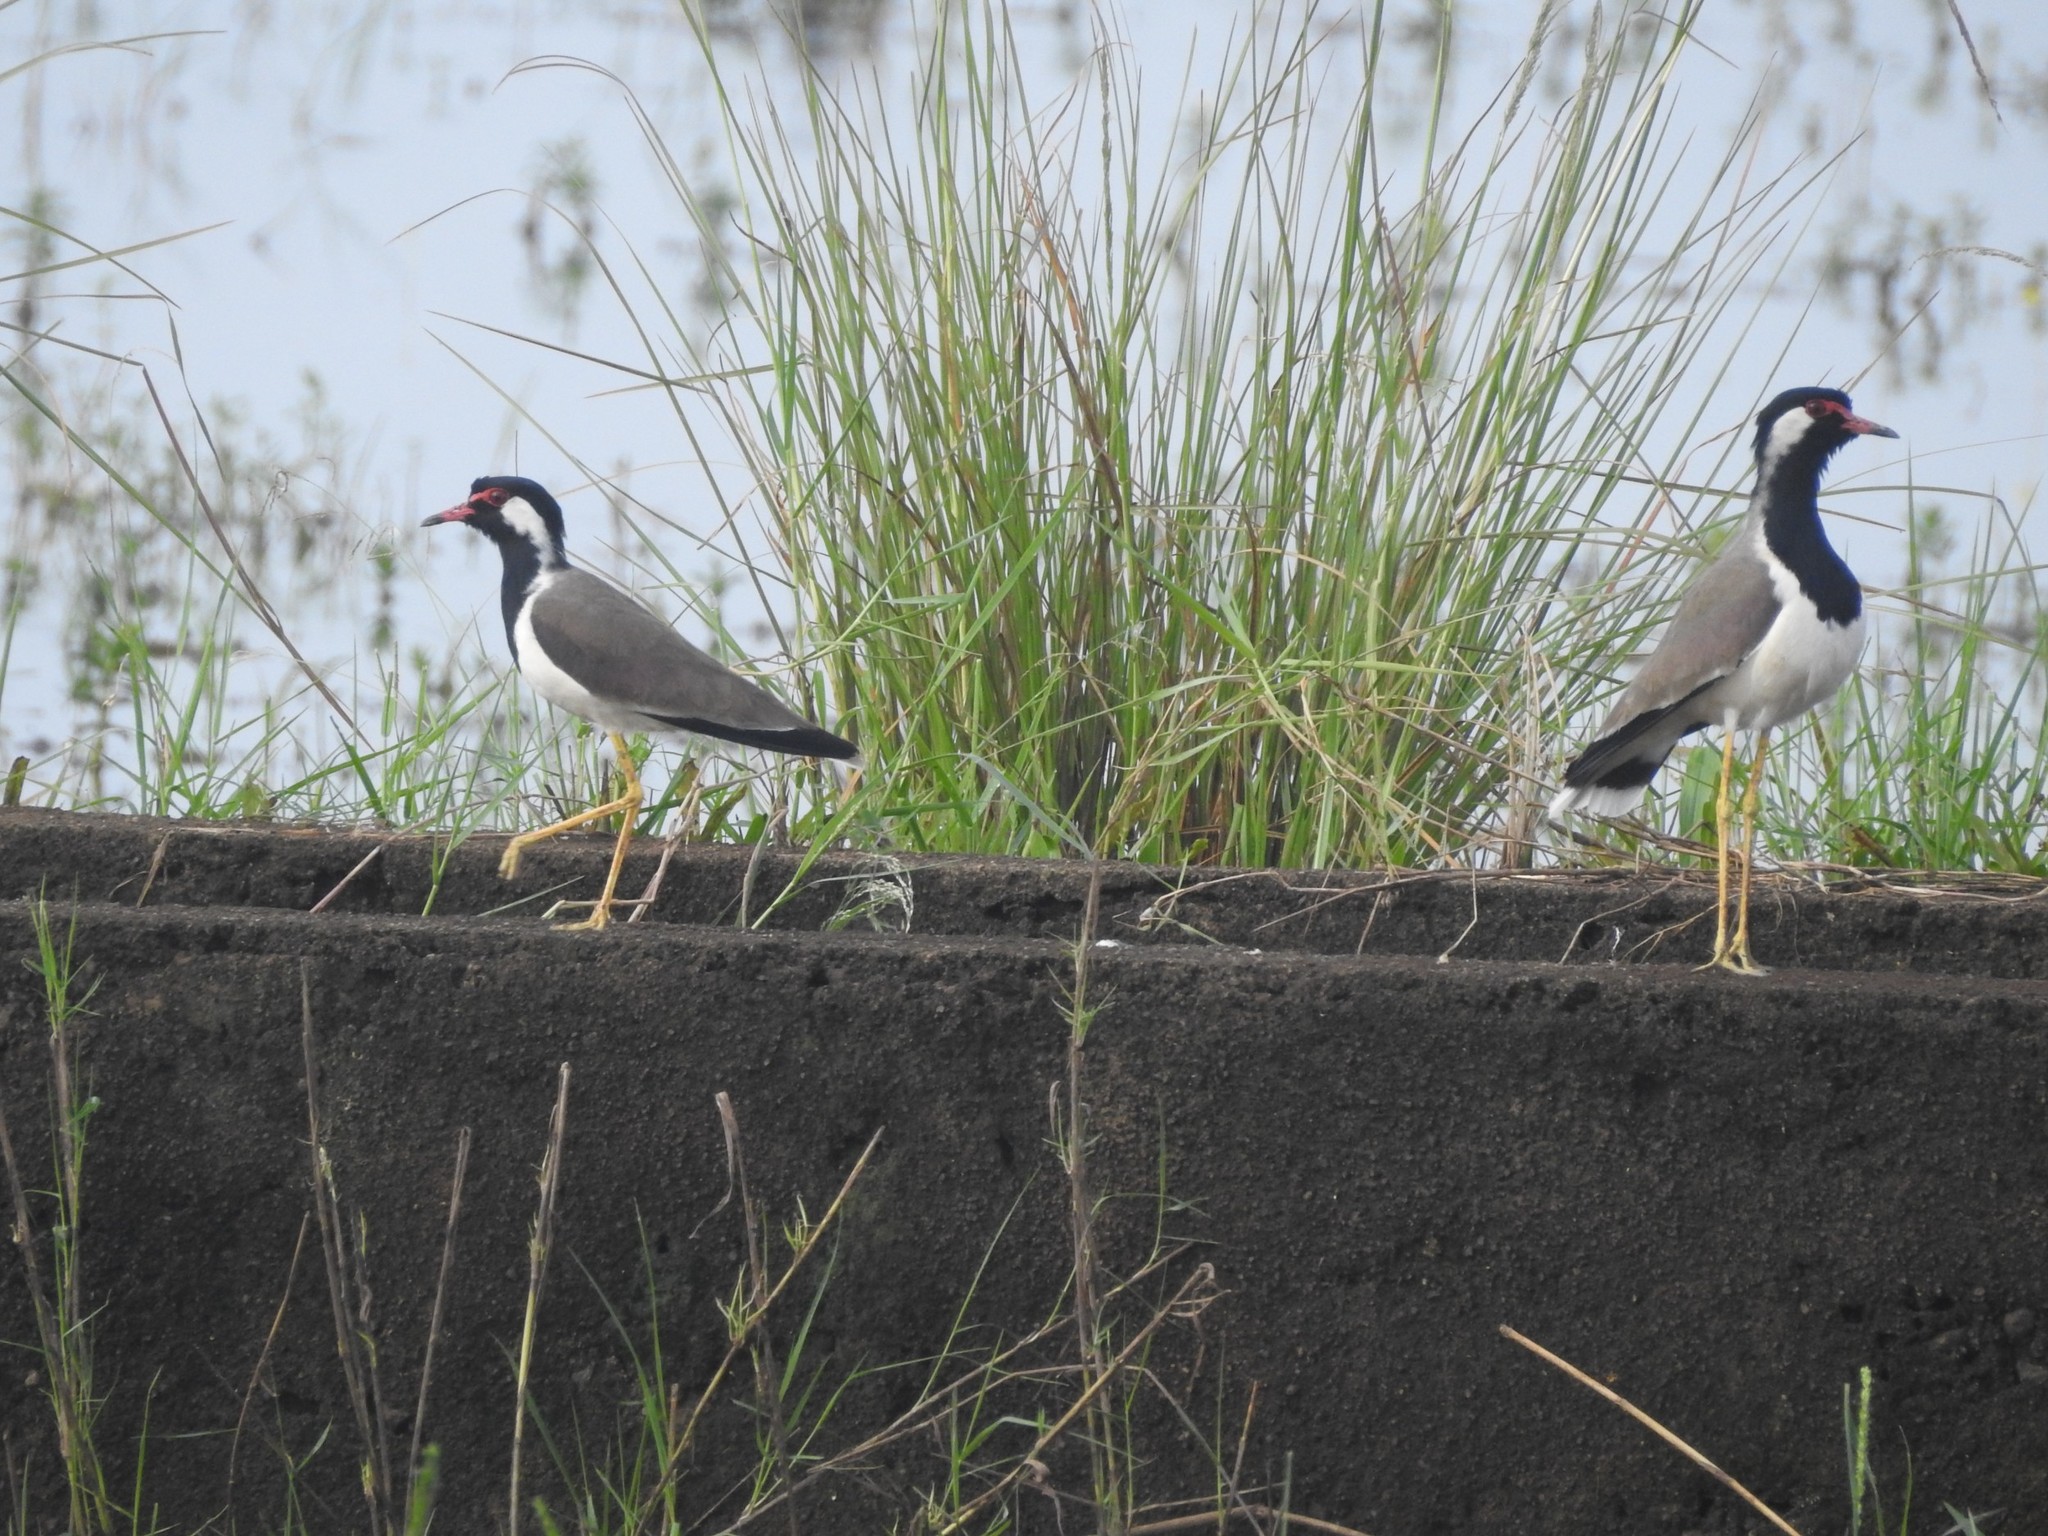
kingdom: Animalia
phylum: Chordata
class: Aves
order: Charadriiformes
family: Charadriidae
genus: Vanellus
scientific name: Vanellus indicus
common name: Red-wattled lapwing
